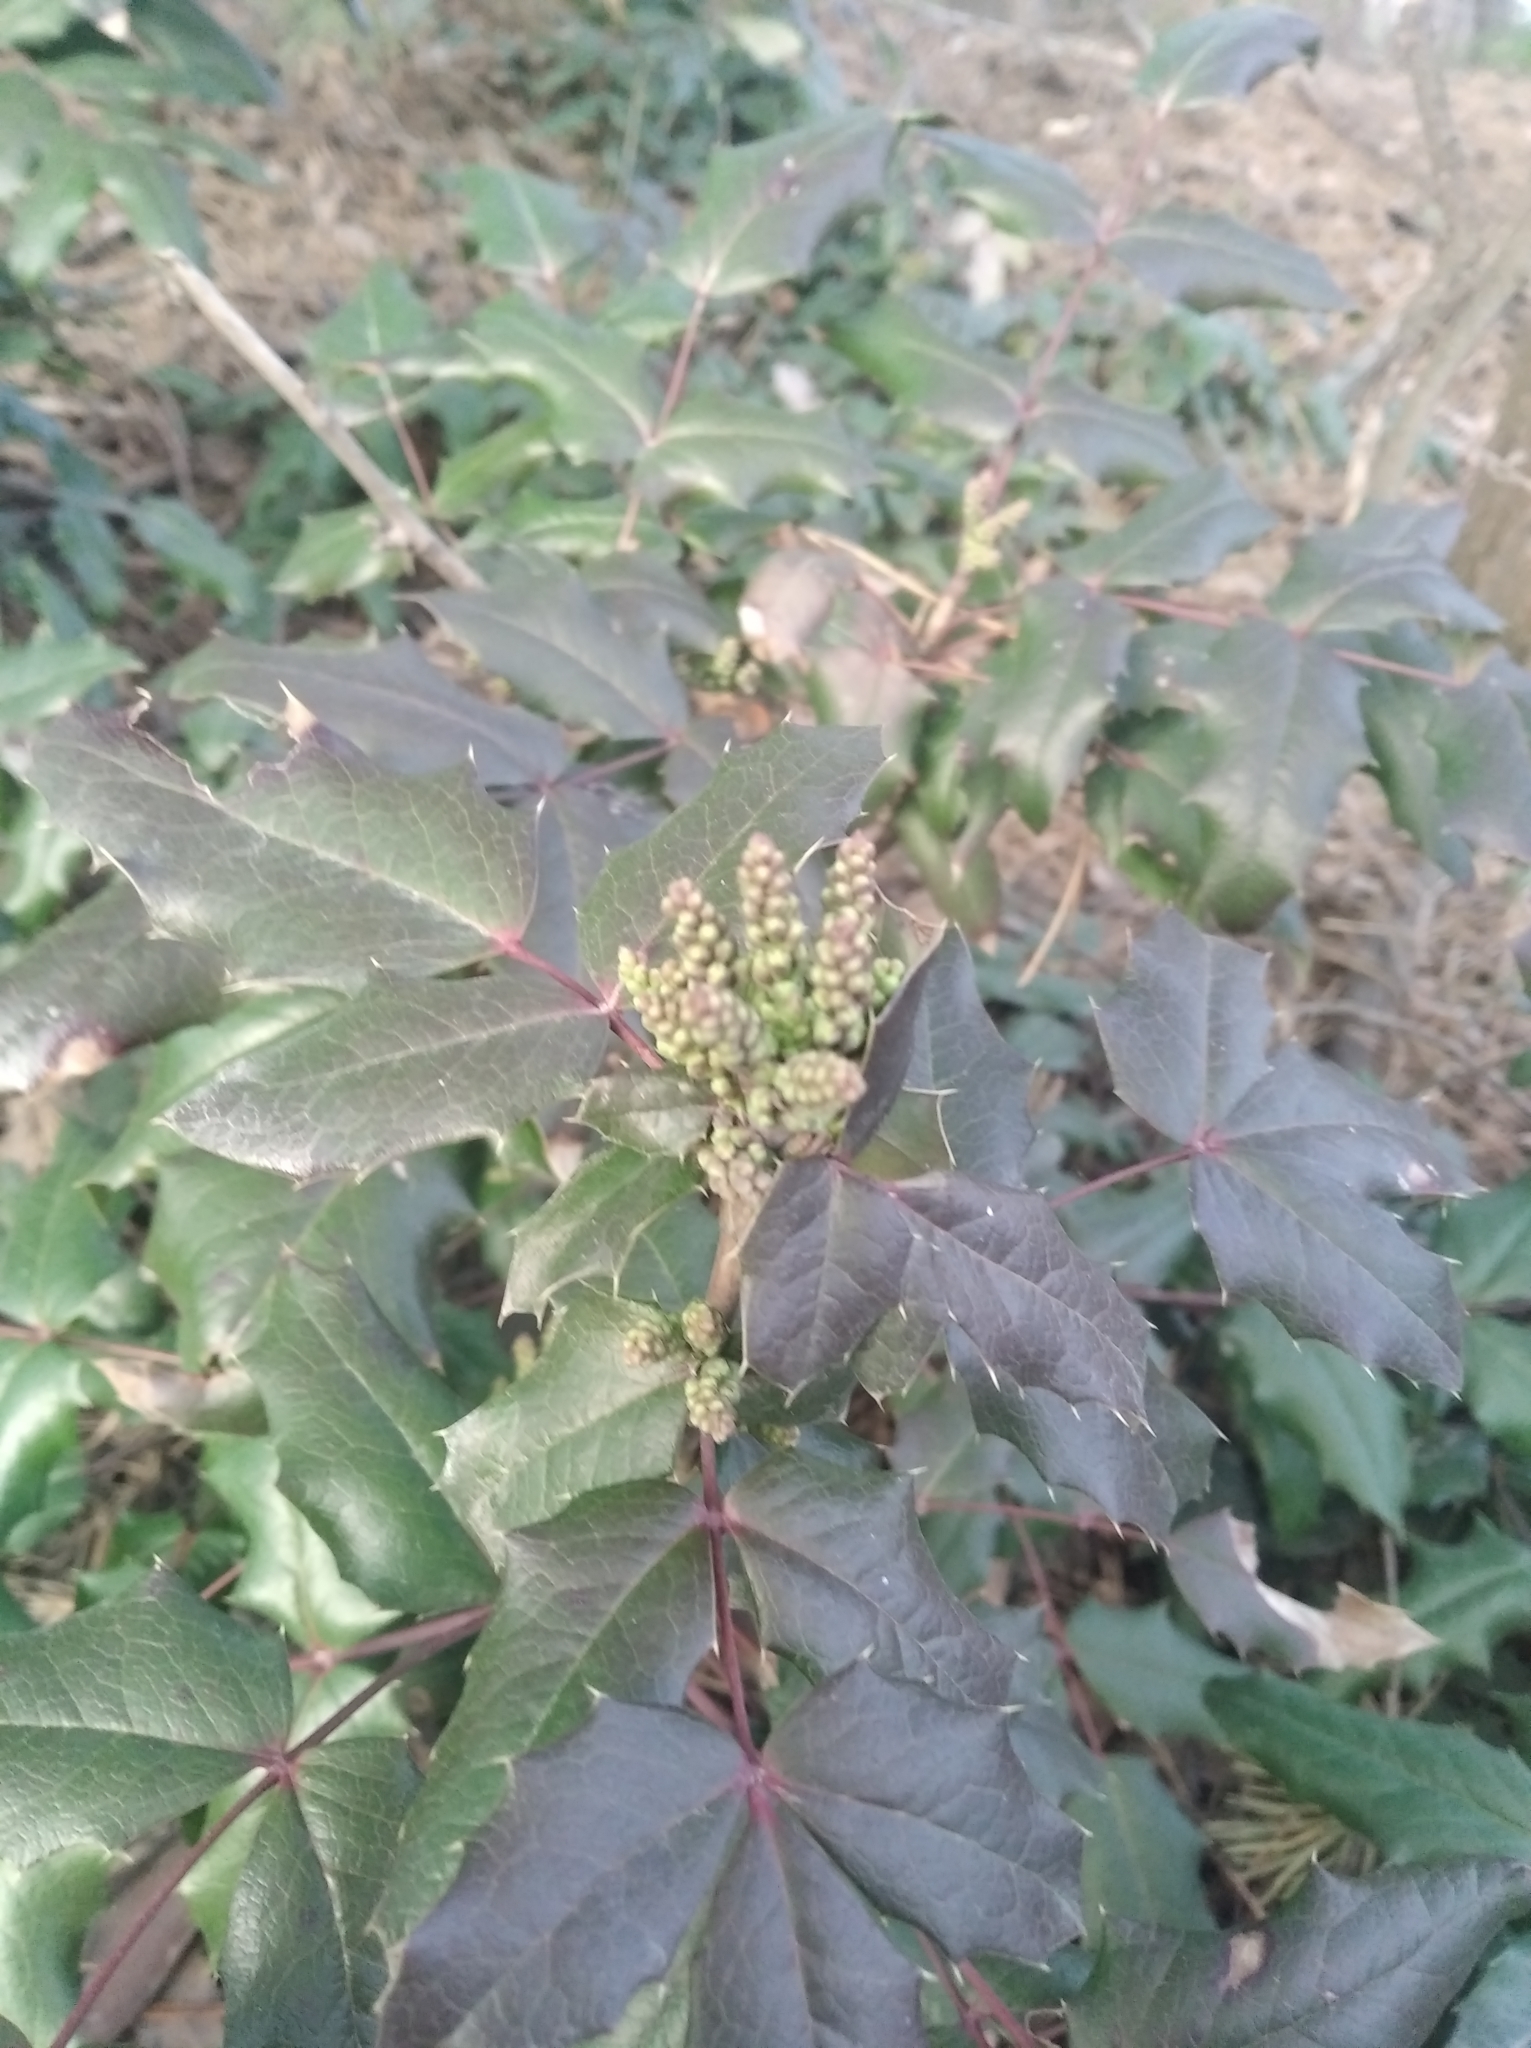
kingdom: Plantae
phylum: Tracheophyta
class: Magnoliopsida
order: Ranunculales
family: Berberidaceae
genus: Mahonia
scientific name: Mahonia aquifolium
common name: Oregon-grape
